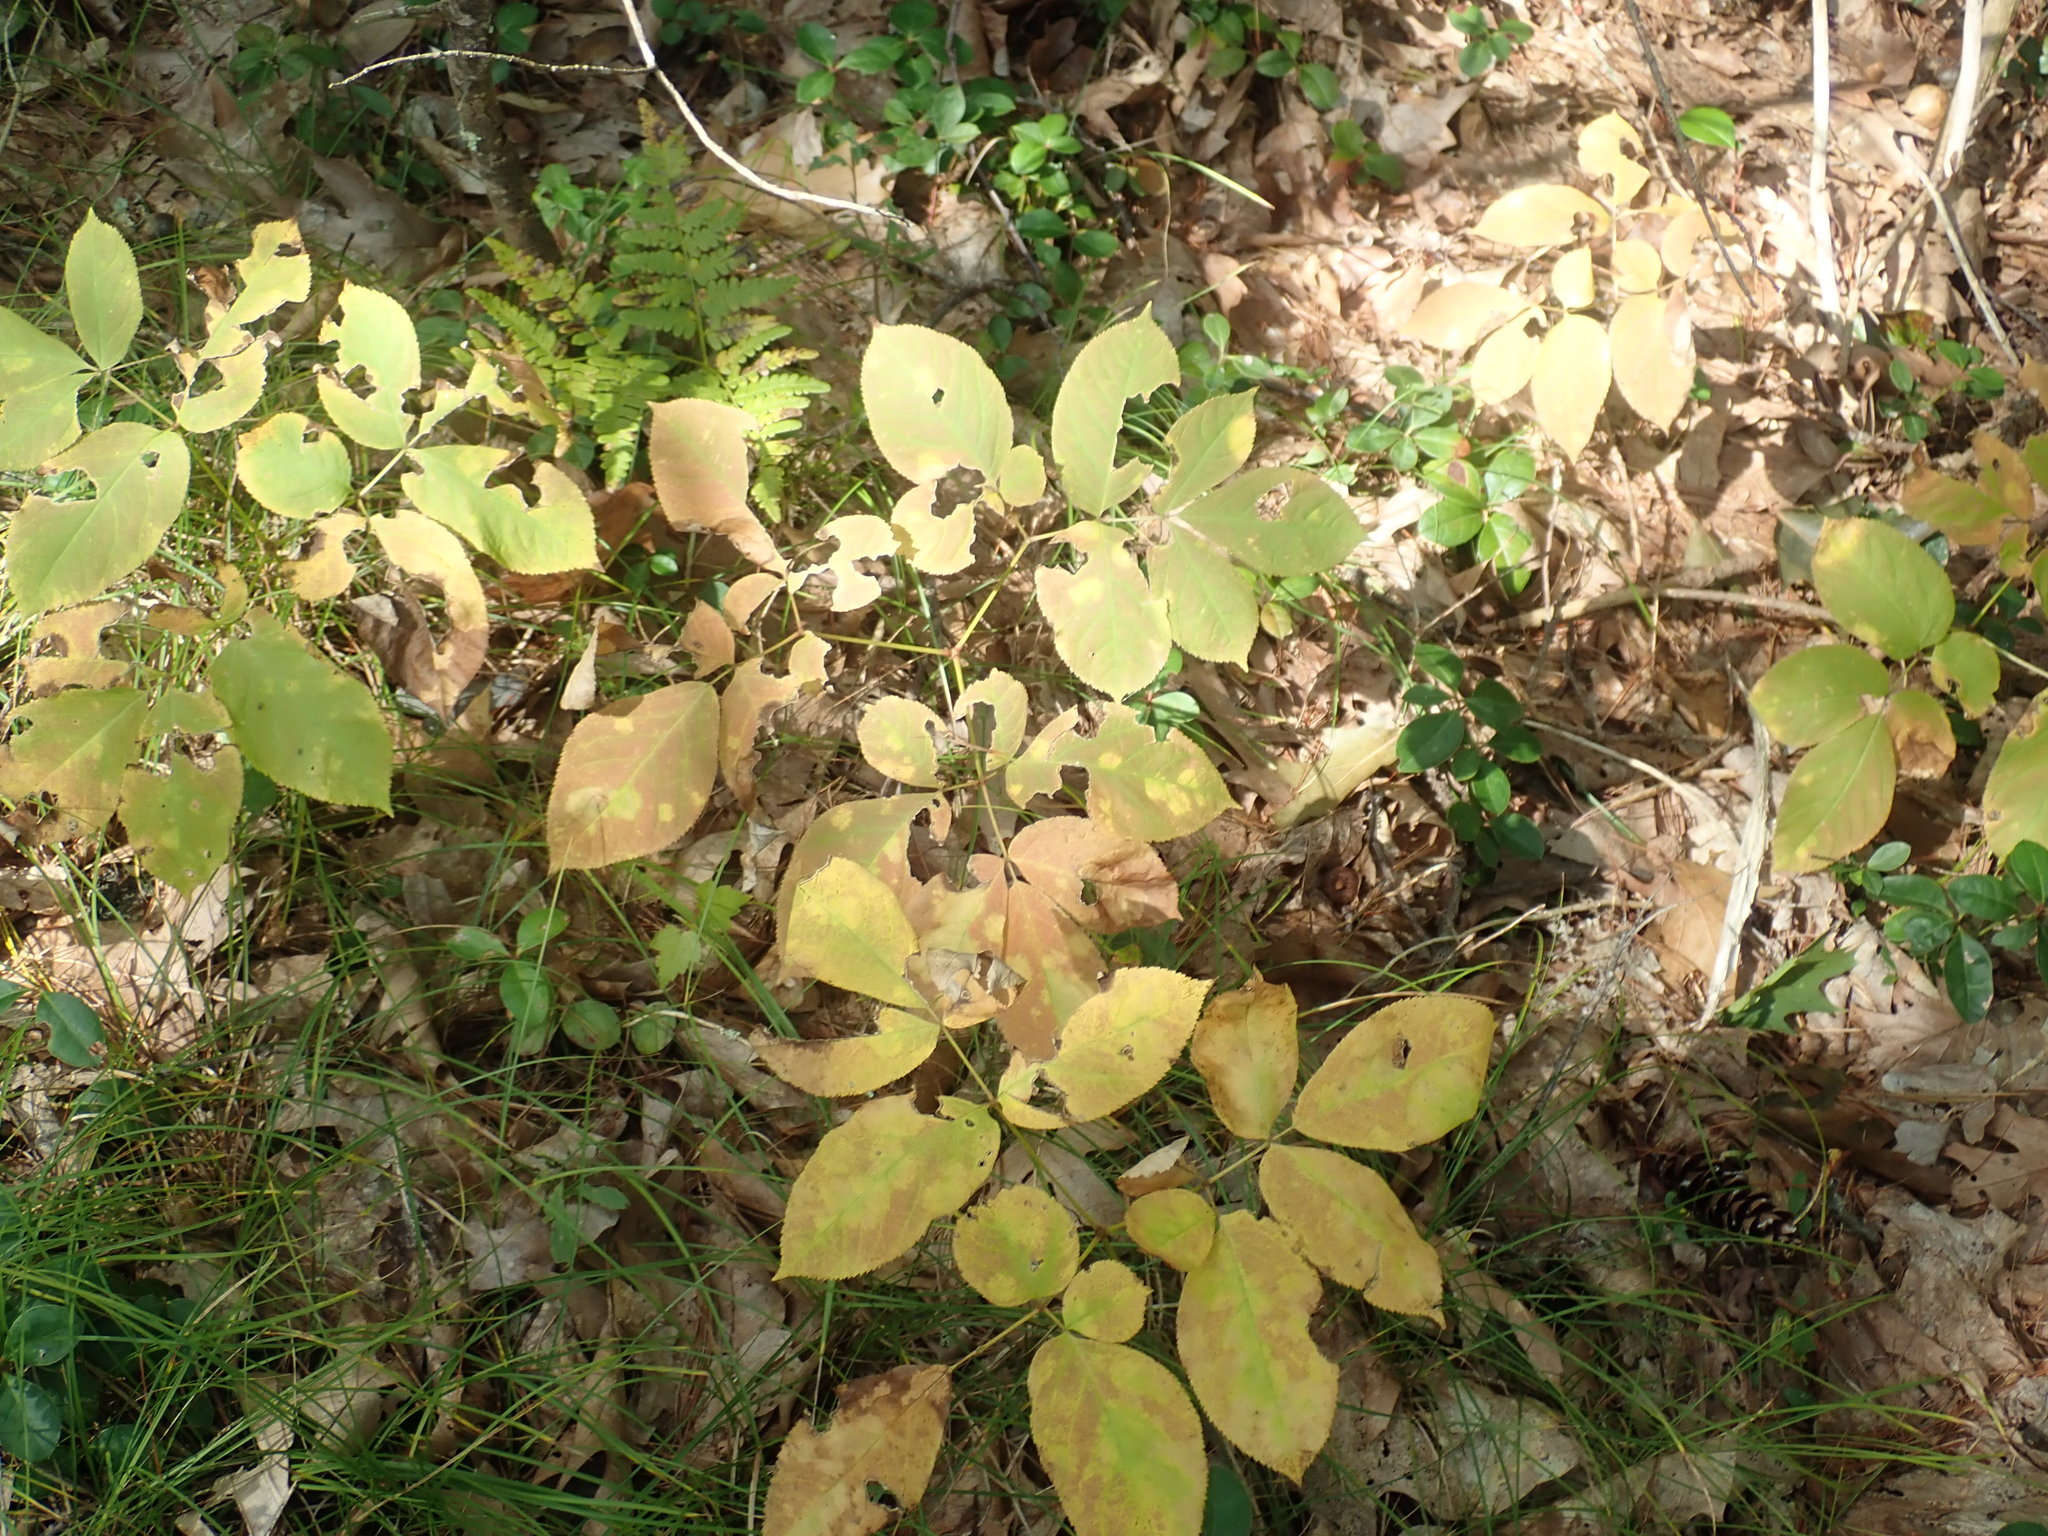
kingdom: Plantae
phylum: Tracheophyta
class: Magnoliopsida
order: Apiales
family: Araliaceae
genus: Aralia
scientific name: Aralia nudicaulis
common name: Wild sarsaparilla
